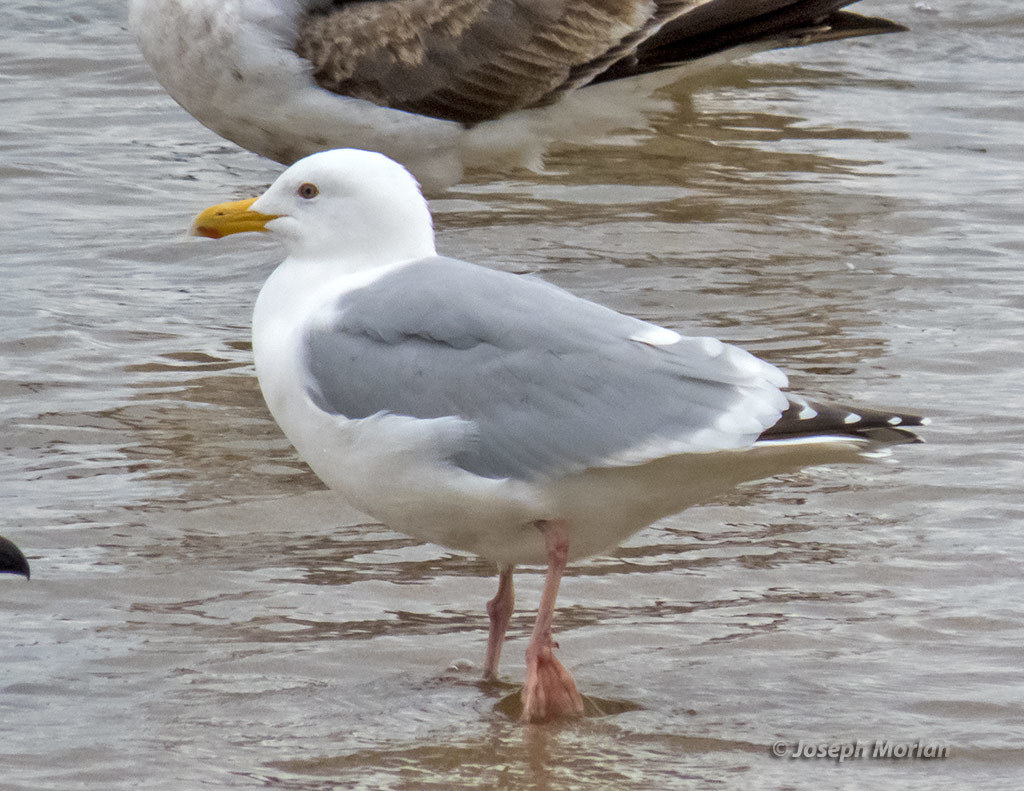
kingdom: Animalia
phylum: Chordata
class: Aves
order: Charadriiformes
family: Laridae
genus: Larus
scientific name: Larus
